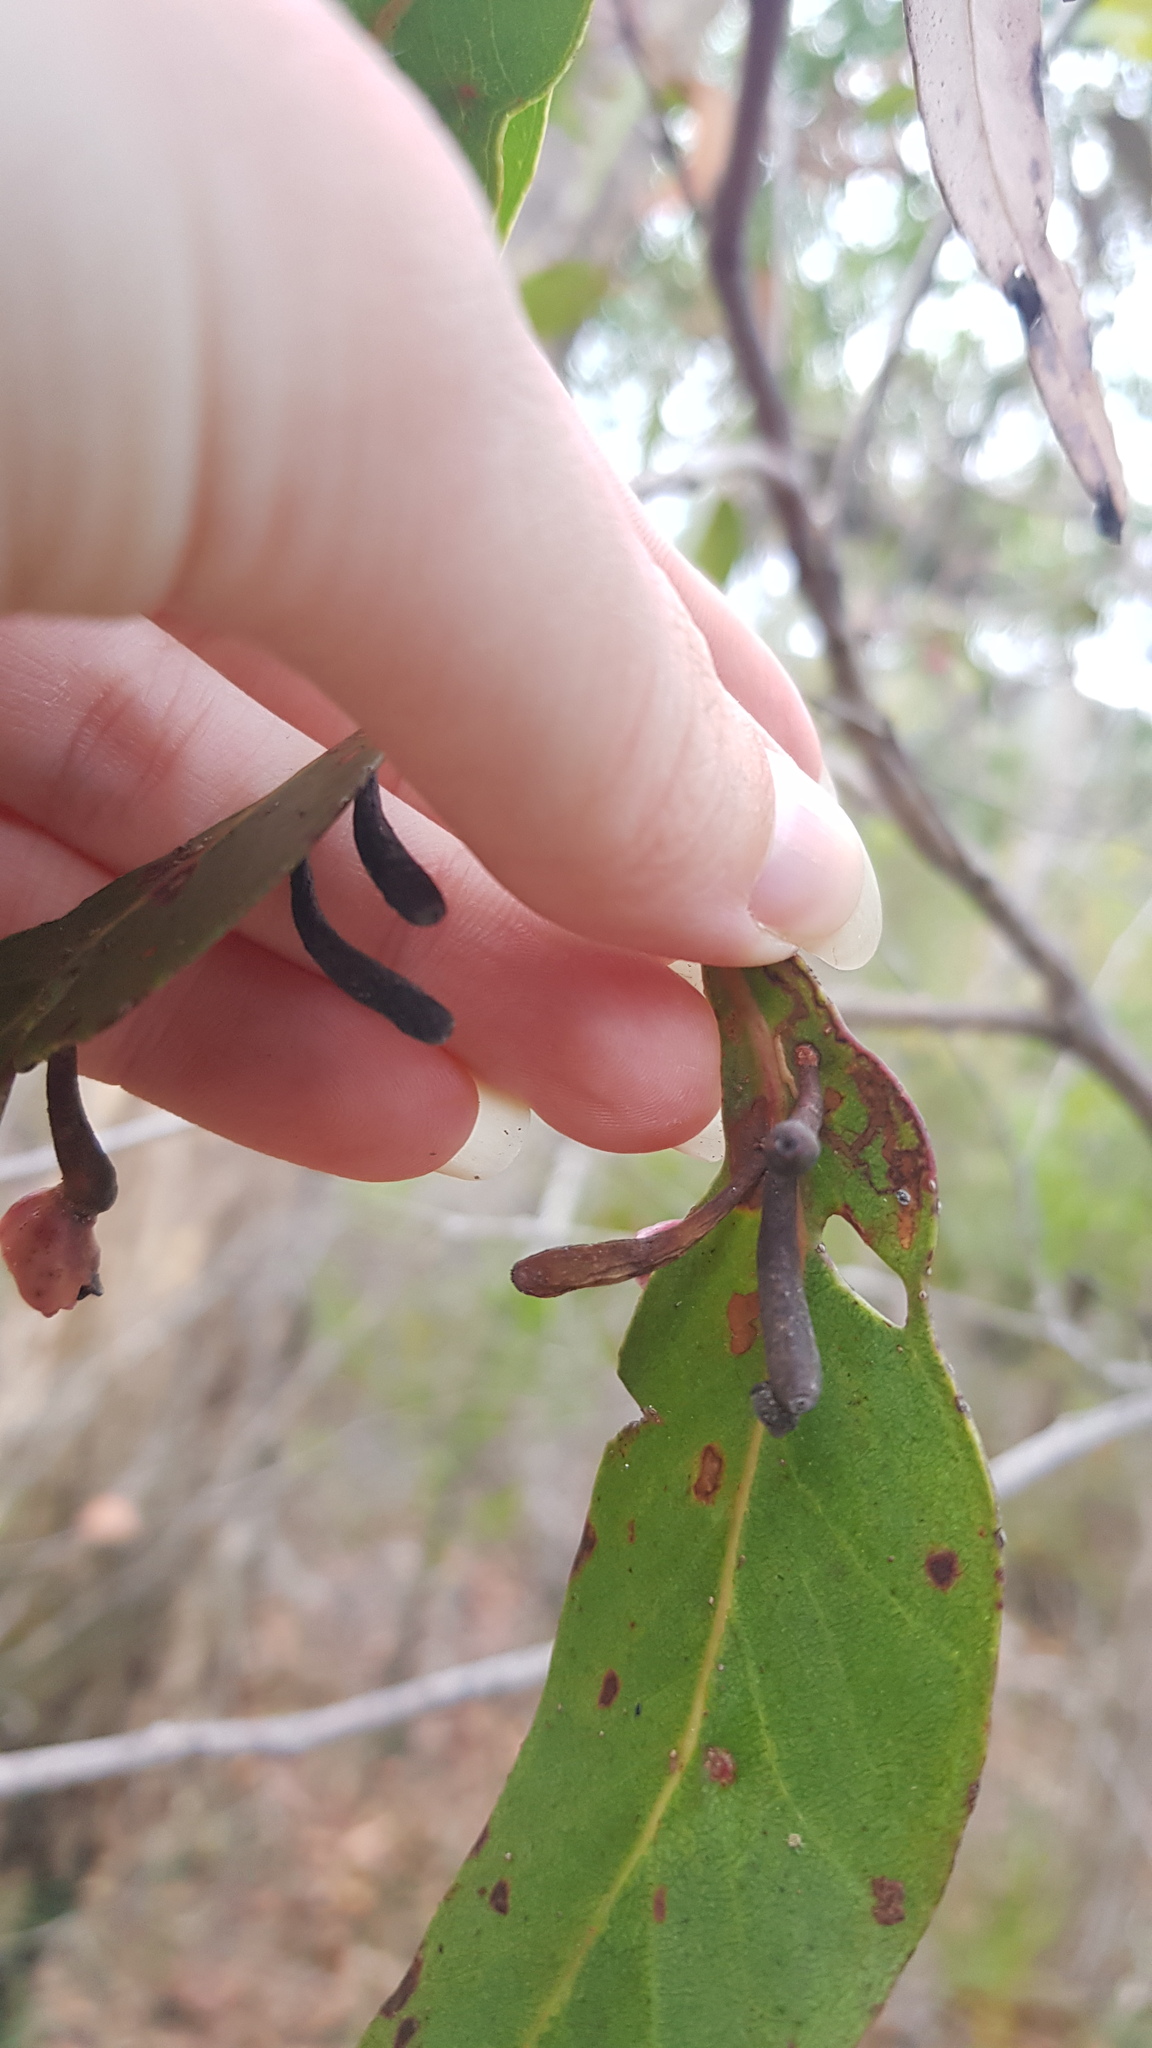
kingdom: Animalia
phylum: Arthropoda
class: Insecta
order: Hemiptera
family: Eriococcidae
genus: Apiomorpha
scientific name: Apiomorpha rosaeforma
